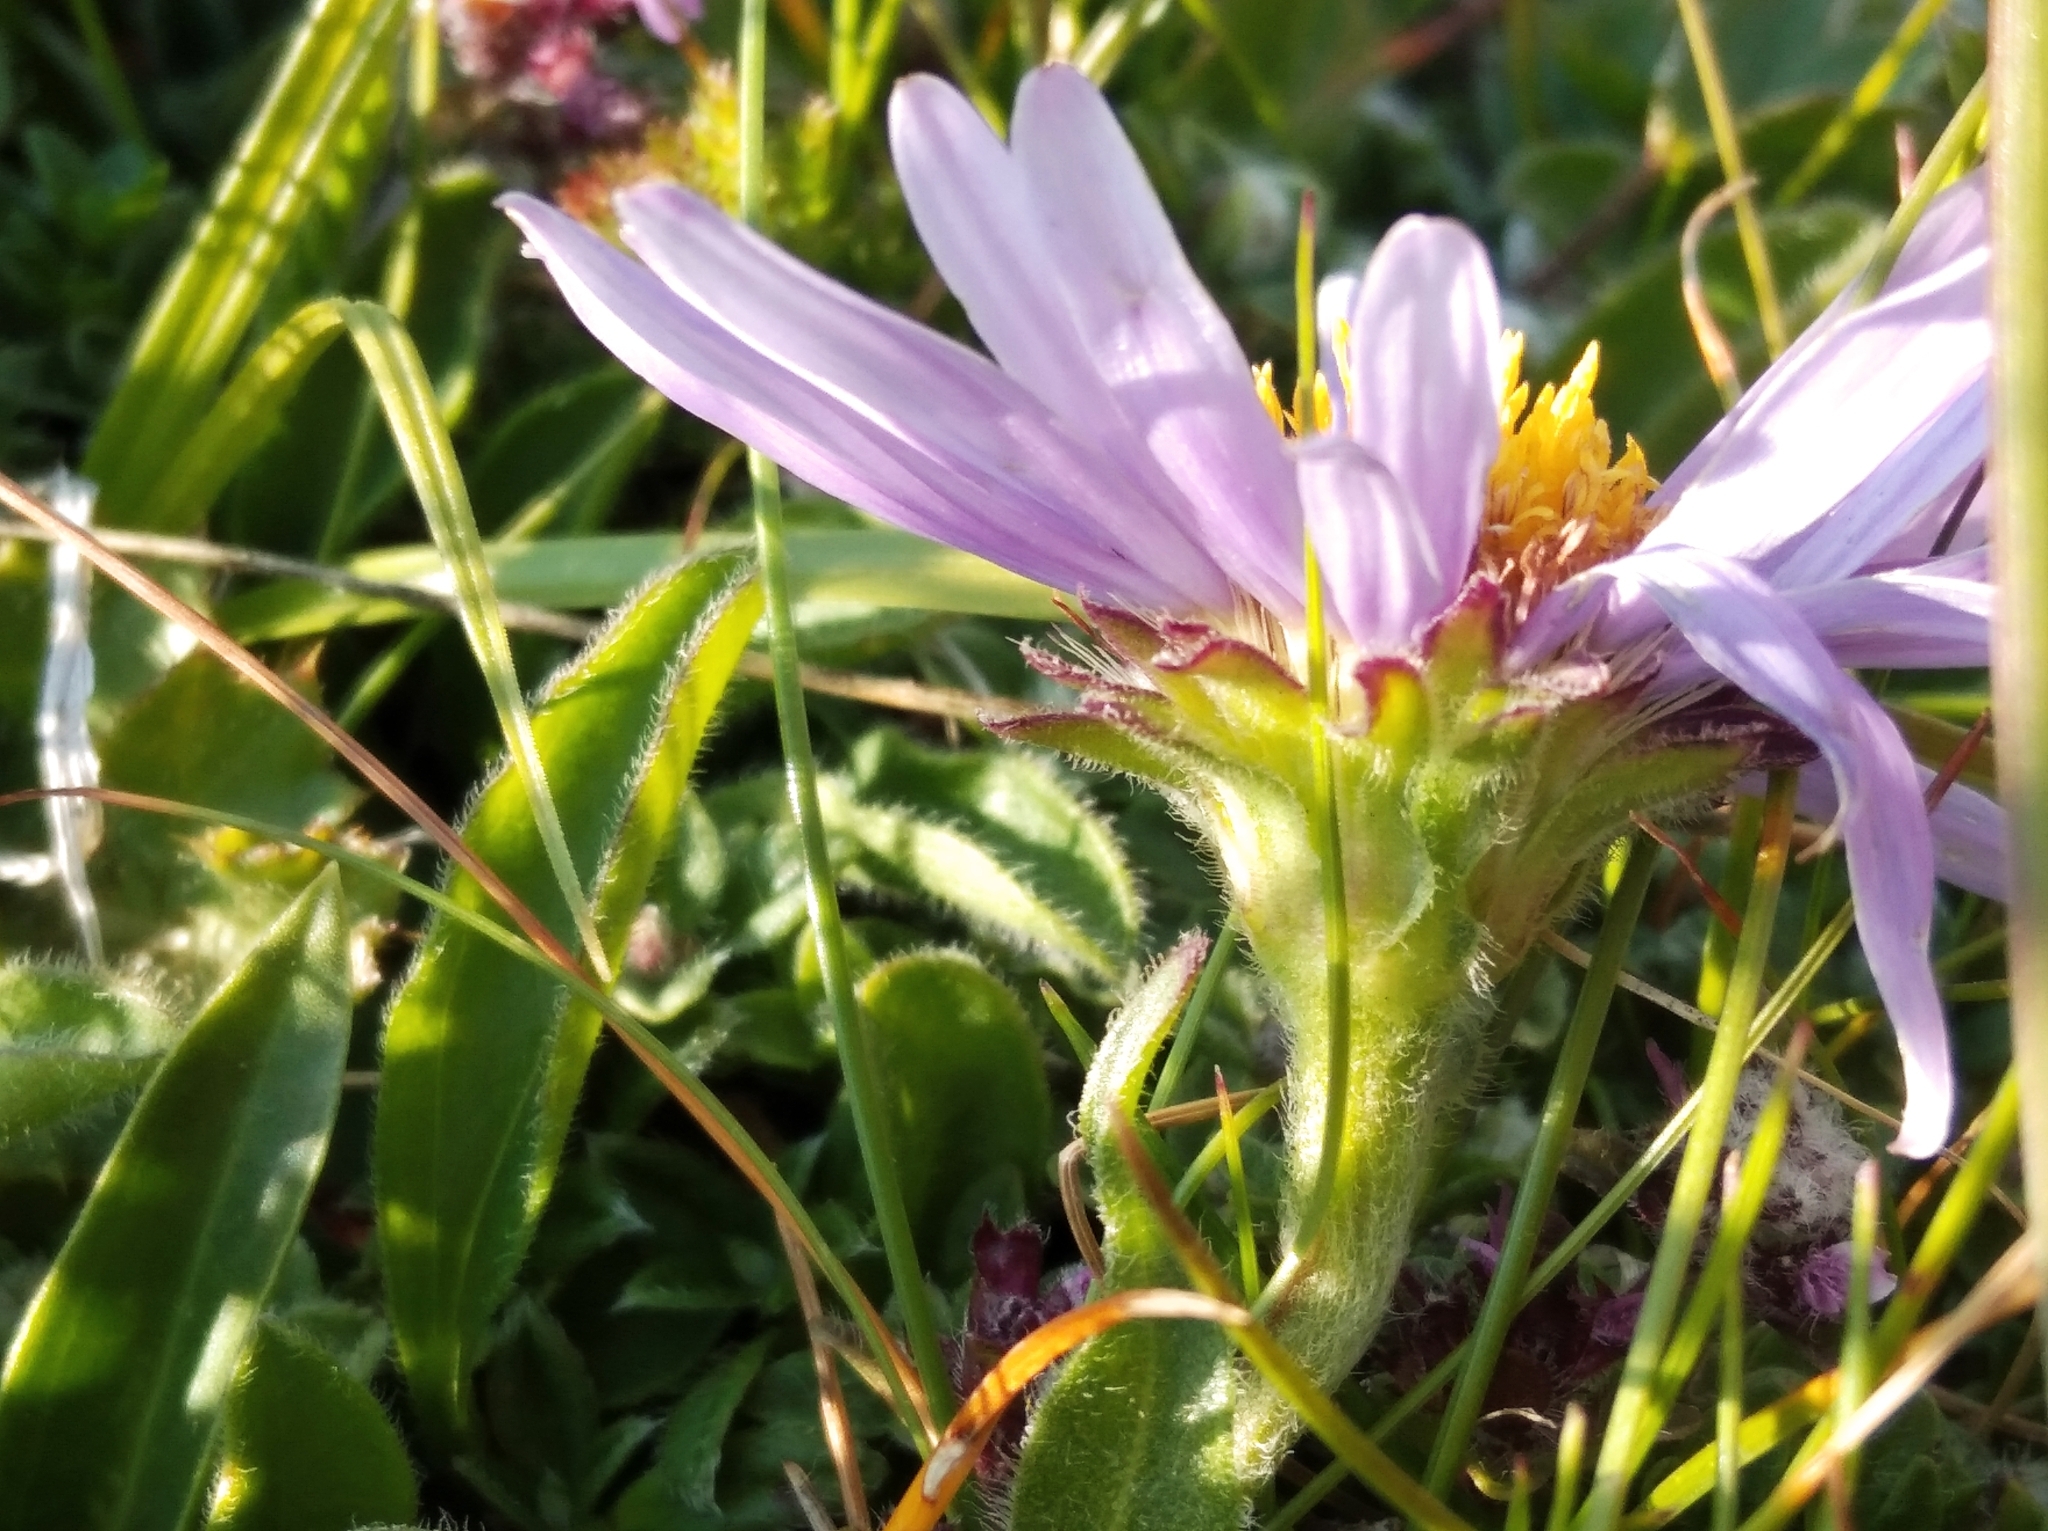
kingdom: Plantae
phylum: Tracheophyta
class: Magnoliopsida
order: Asterales
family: Asteraceae
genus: Aster
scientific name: Aster alpinus
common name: Alpine aster
